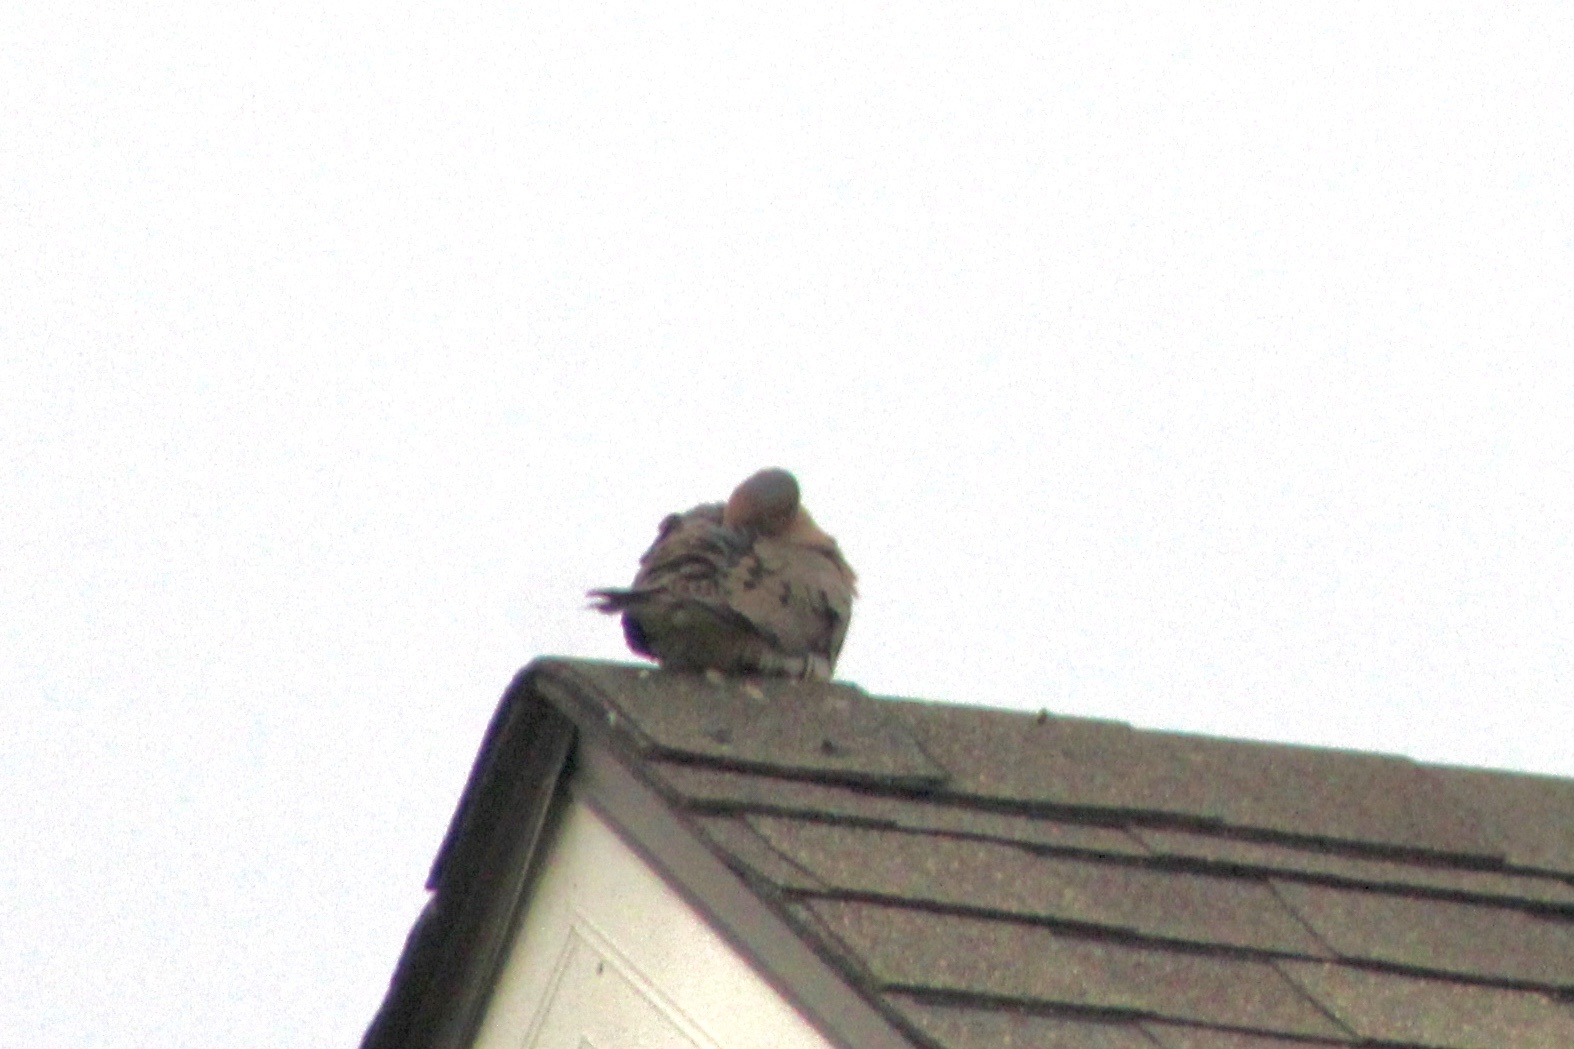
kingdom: Animalia
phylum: Chordata
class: Aves
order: Columbiformes
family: Columbidae
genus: Zenaida
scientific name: Zenaida macroura
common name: Mourning dove
